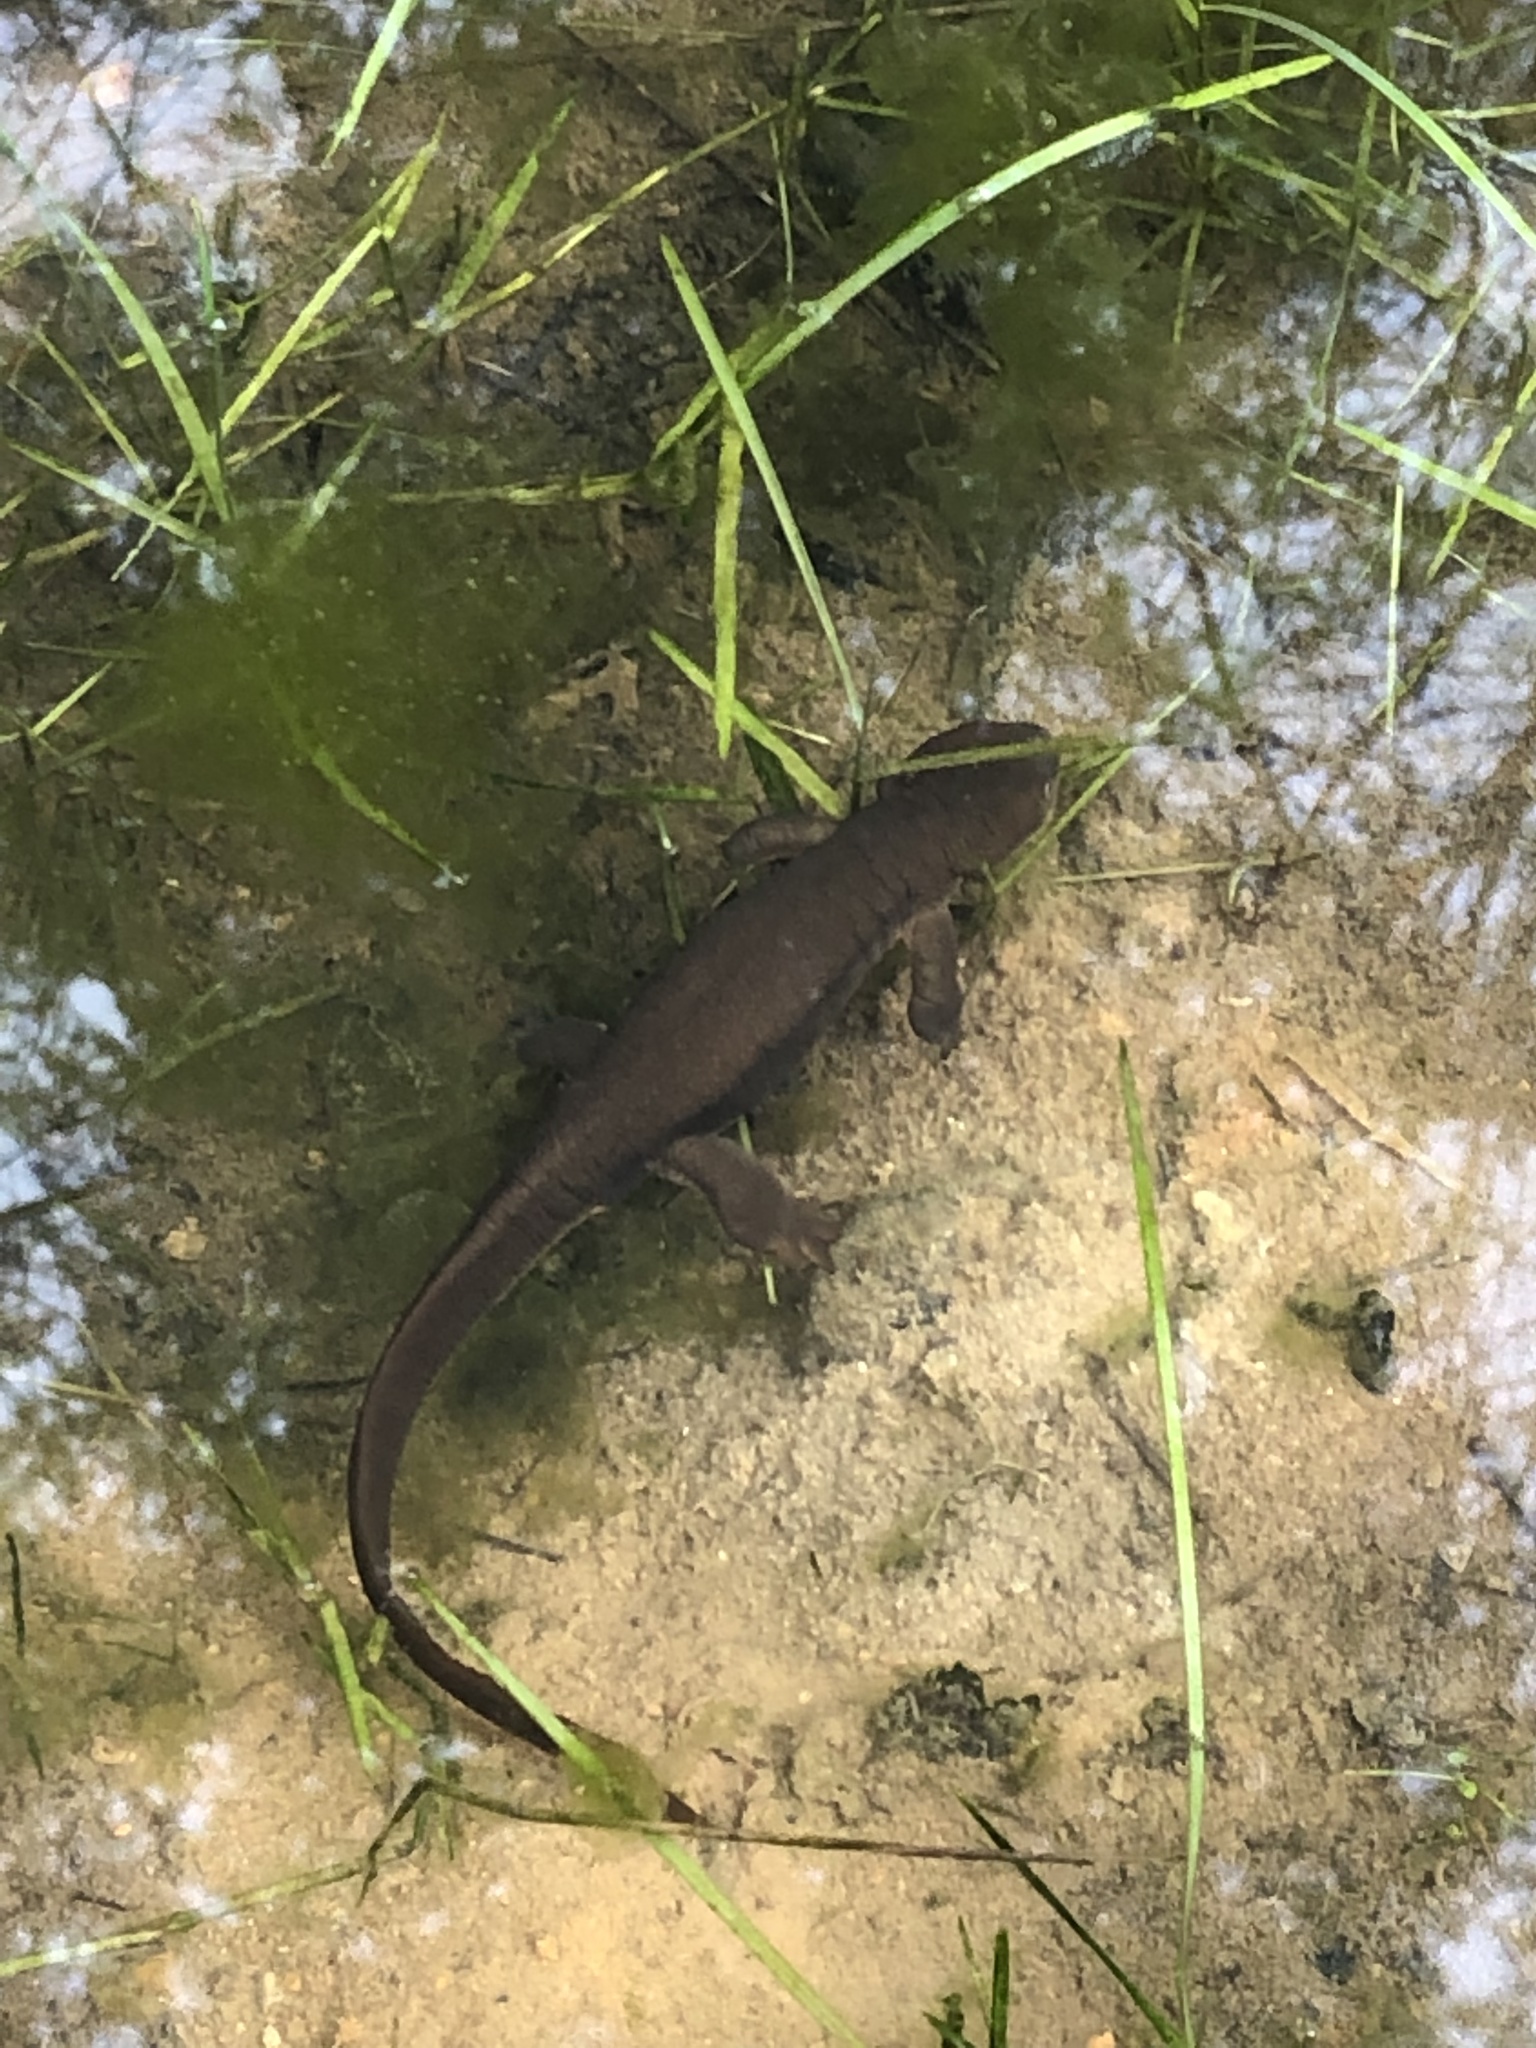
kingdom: Animalia
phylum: Chordata
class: Amphibia
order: Caudata
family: Salamandridae
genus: Taricha
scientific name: Taricha granulosa
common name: Roughskin newt
